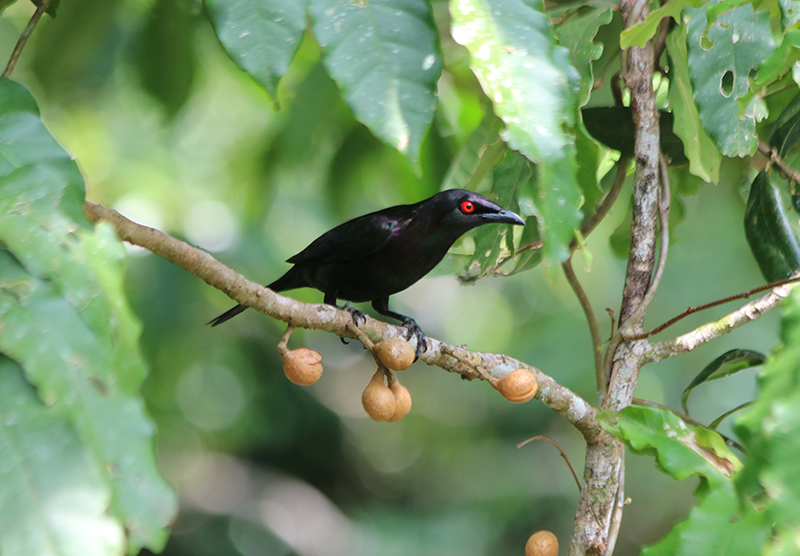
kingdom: Animalia
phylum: Chordata
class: Aves
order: Passeriformes
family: Sturnidae
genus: Aplonis
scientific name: Aplonis metallica
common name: Metallic starling
